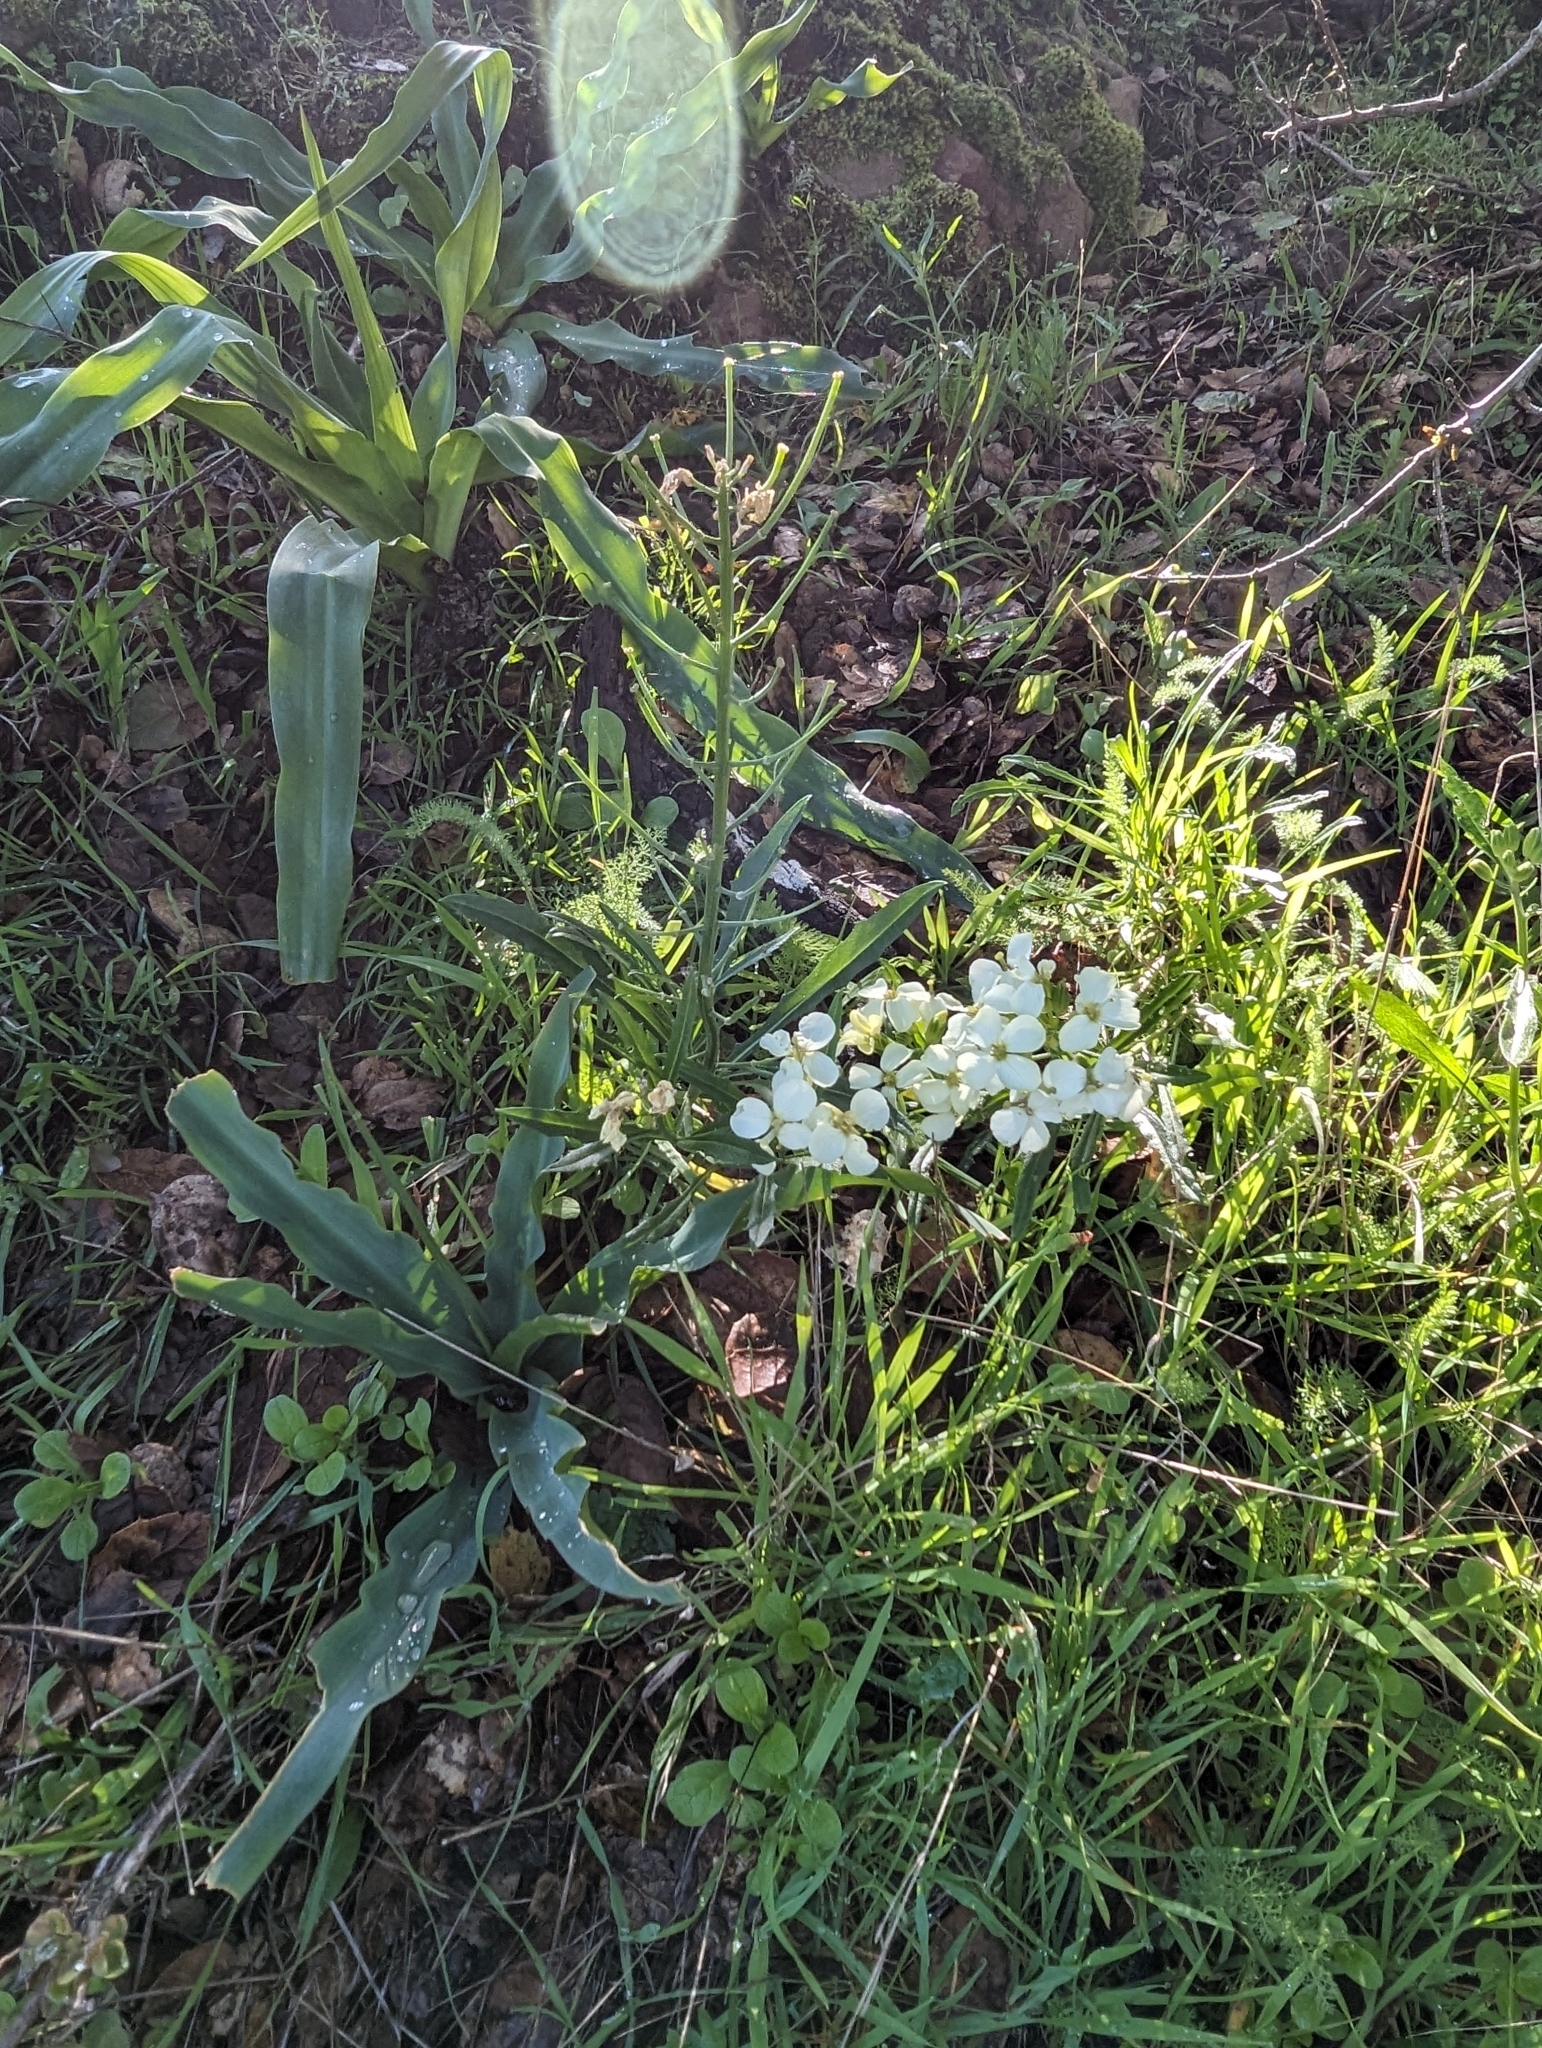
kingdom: Plantae
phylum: Tracheophyta
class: Magnoliopsida
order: Brassicales
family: Brassicaceae
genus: Erysimum
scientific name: Erysimum franciscanum
